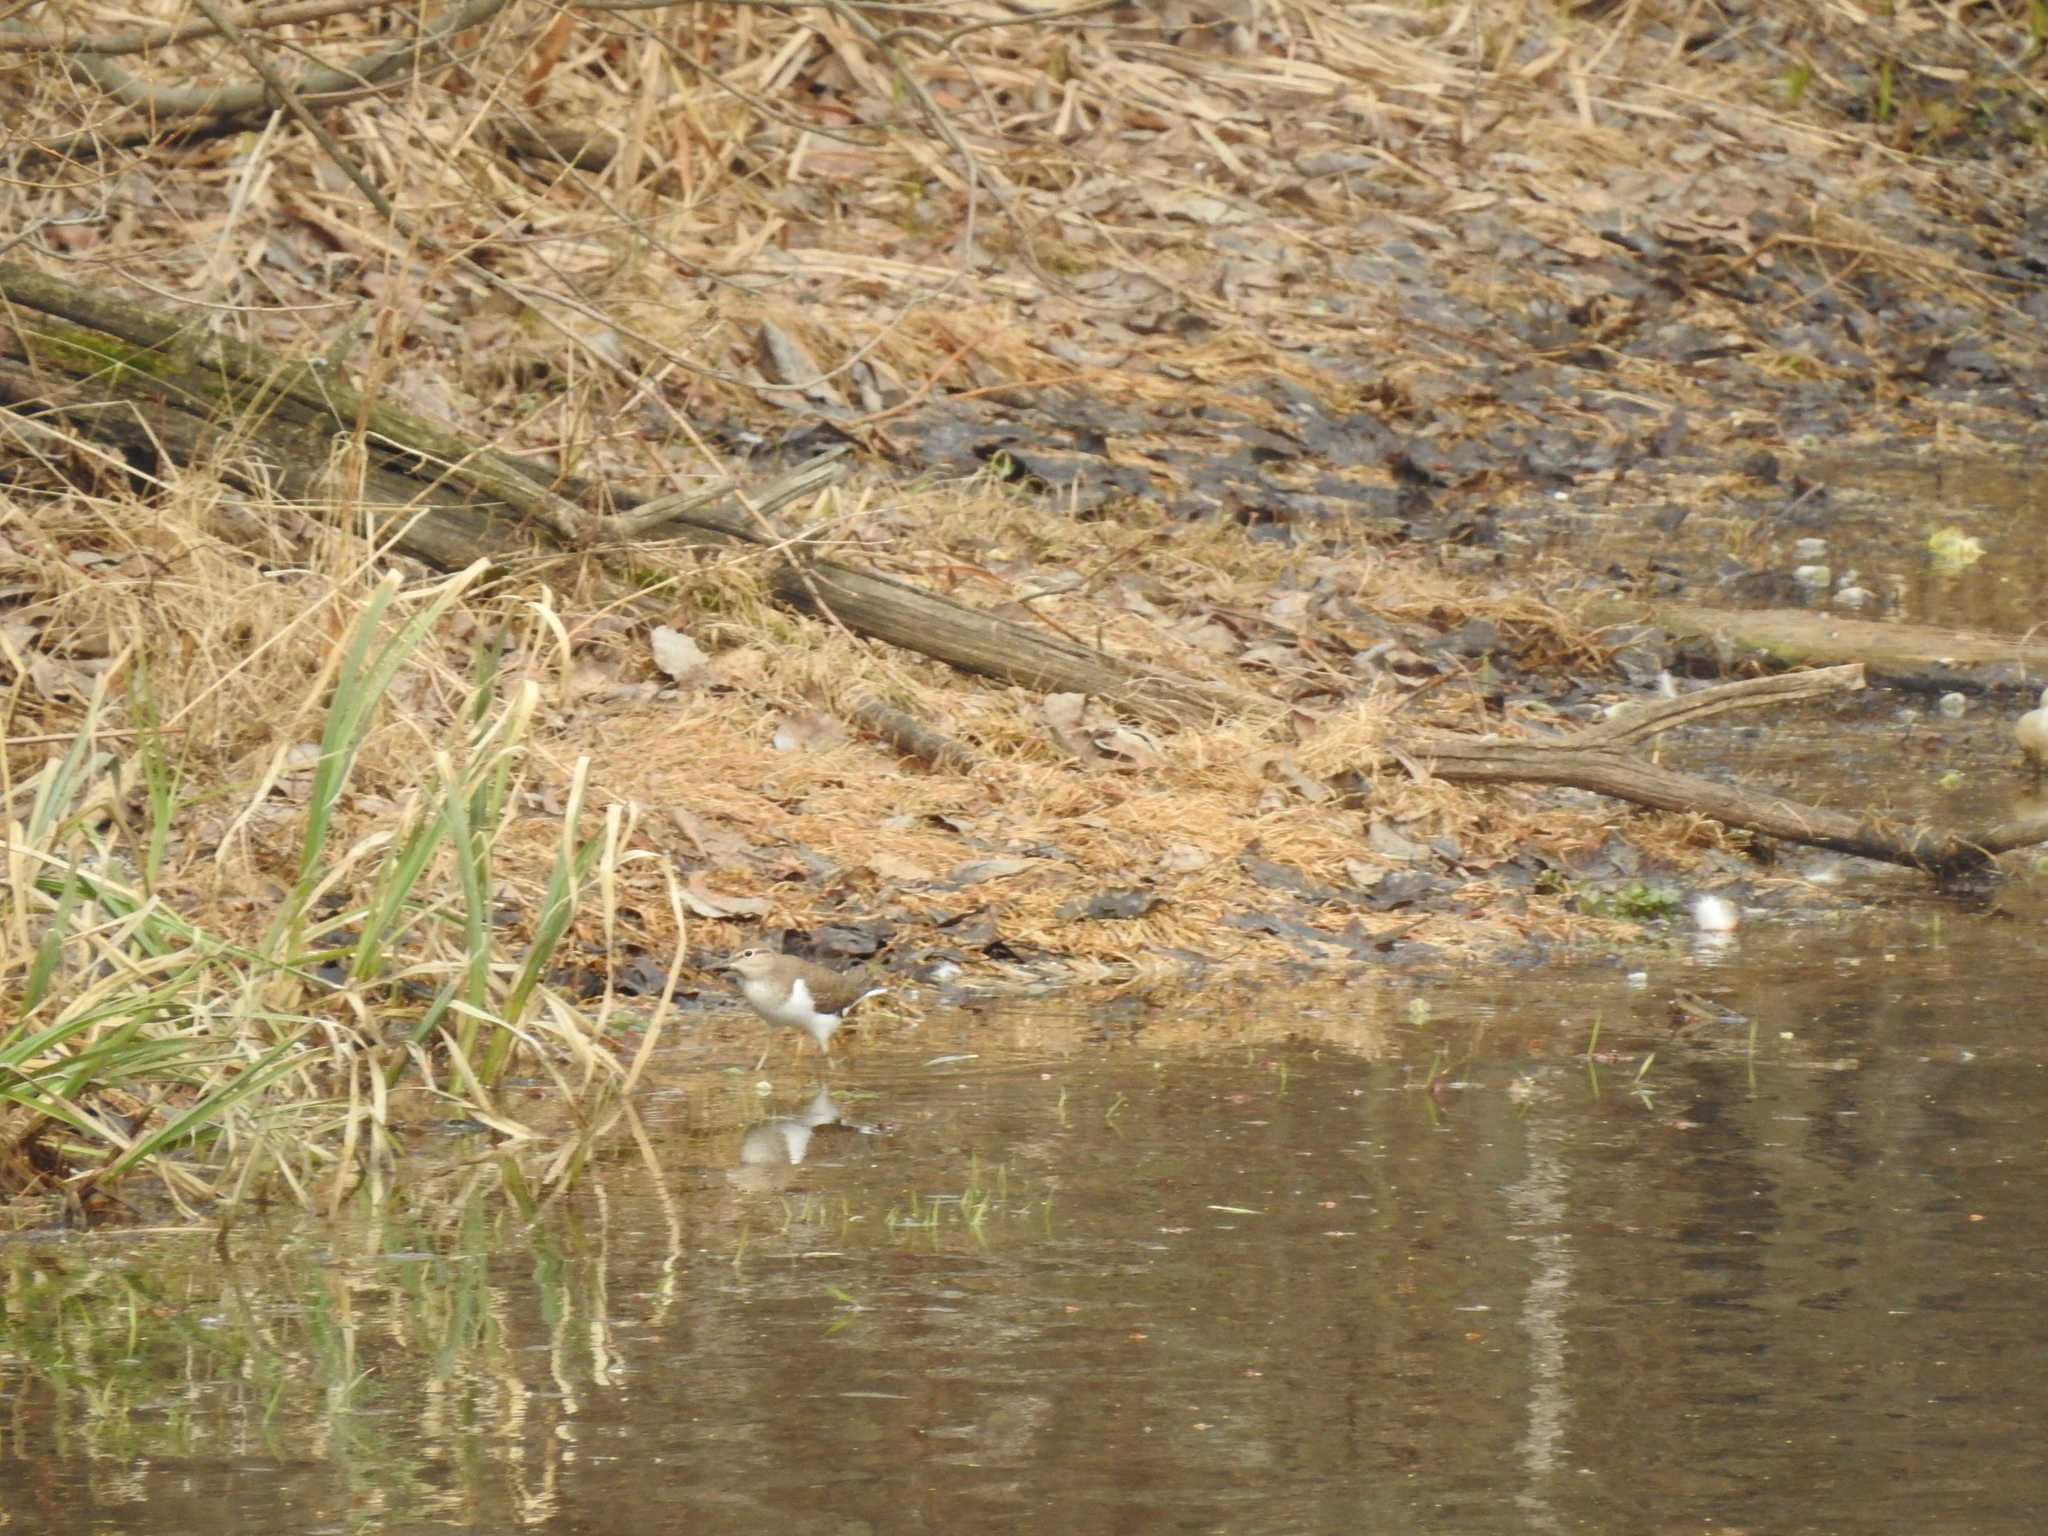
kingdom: Animalia
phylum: Chordata
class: Aves
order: Charadriiformes
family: Scolopacidae
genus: Actitis
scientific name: Actitis hypoleucos
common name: Common sandpiper
